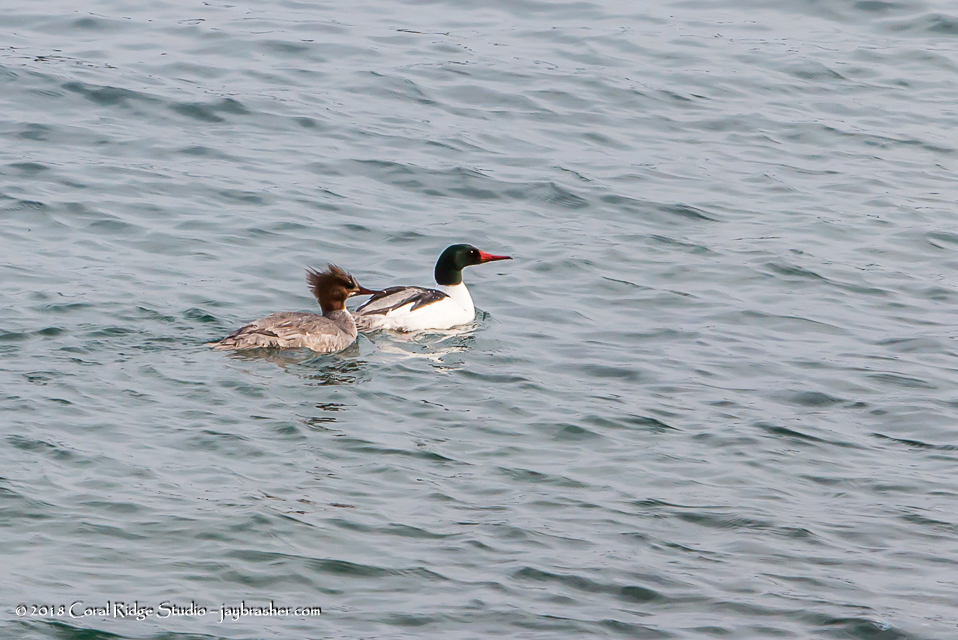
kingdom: Animalia
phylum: Chordata
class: Aves
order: Anseriformes
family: Anatidae
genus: Mergus
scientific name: Mergus merganser
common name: Common merganser
